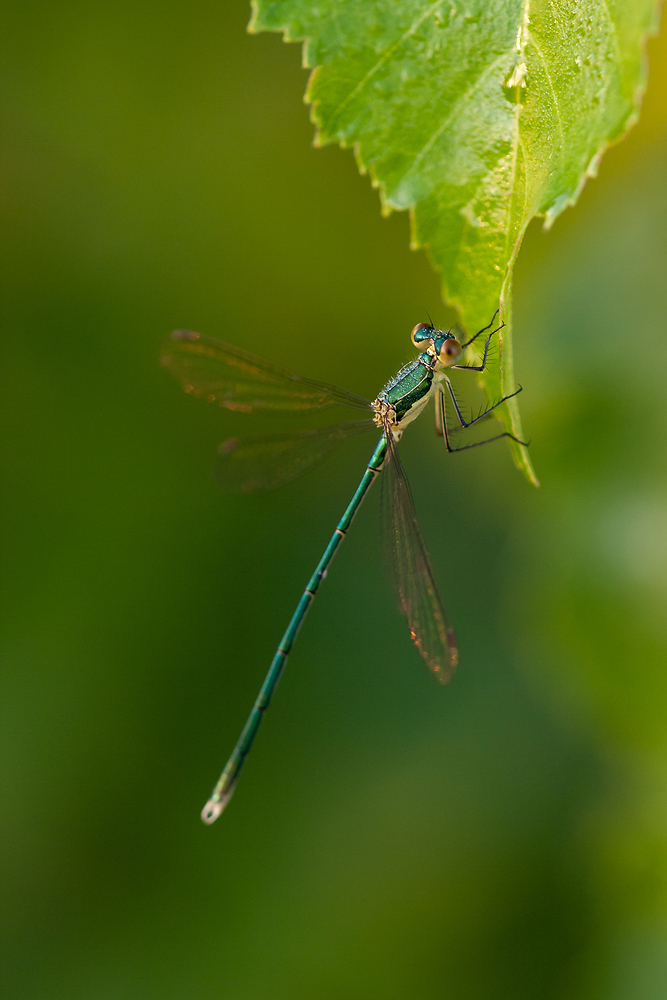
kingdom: Animalia
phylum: Arthropoda
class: Insecta
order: Odonata
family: Lestidae
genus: Lestes
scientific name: Lestes virens
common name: Small emerald spreadwing
